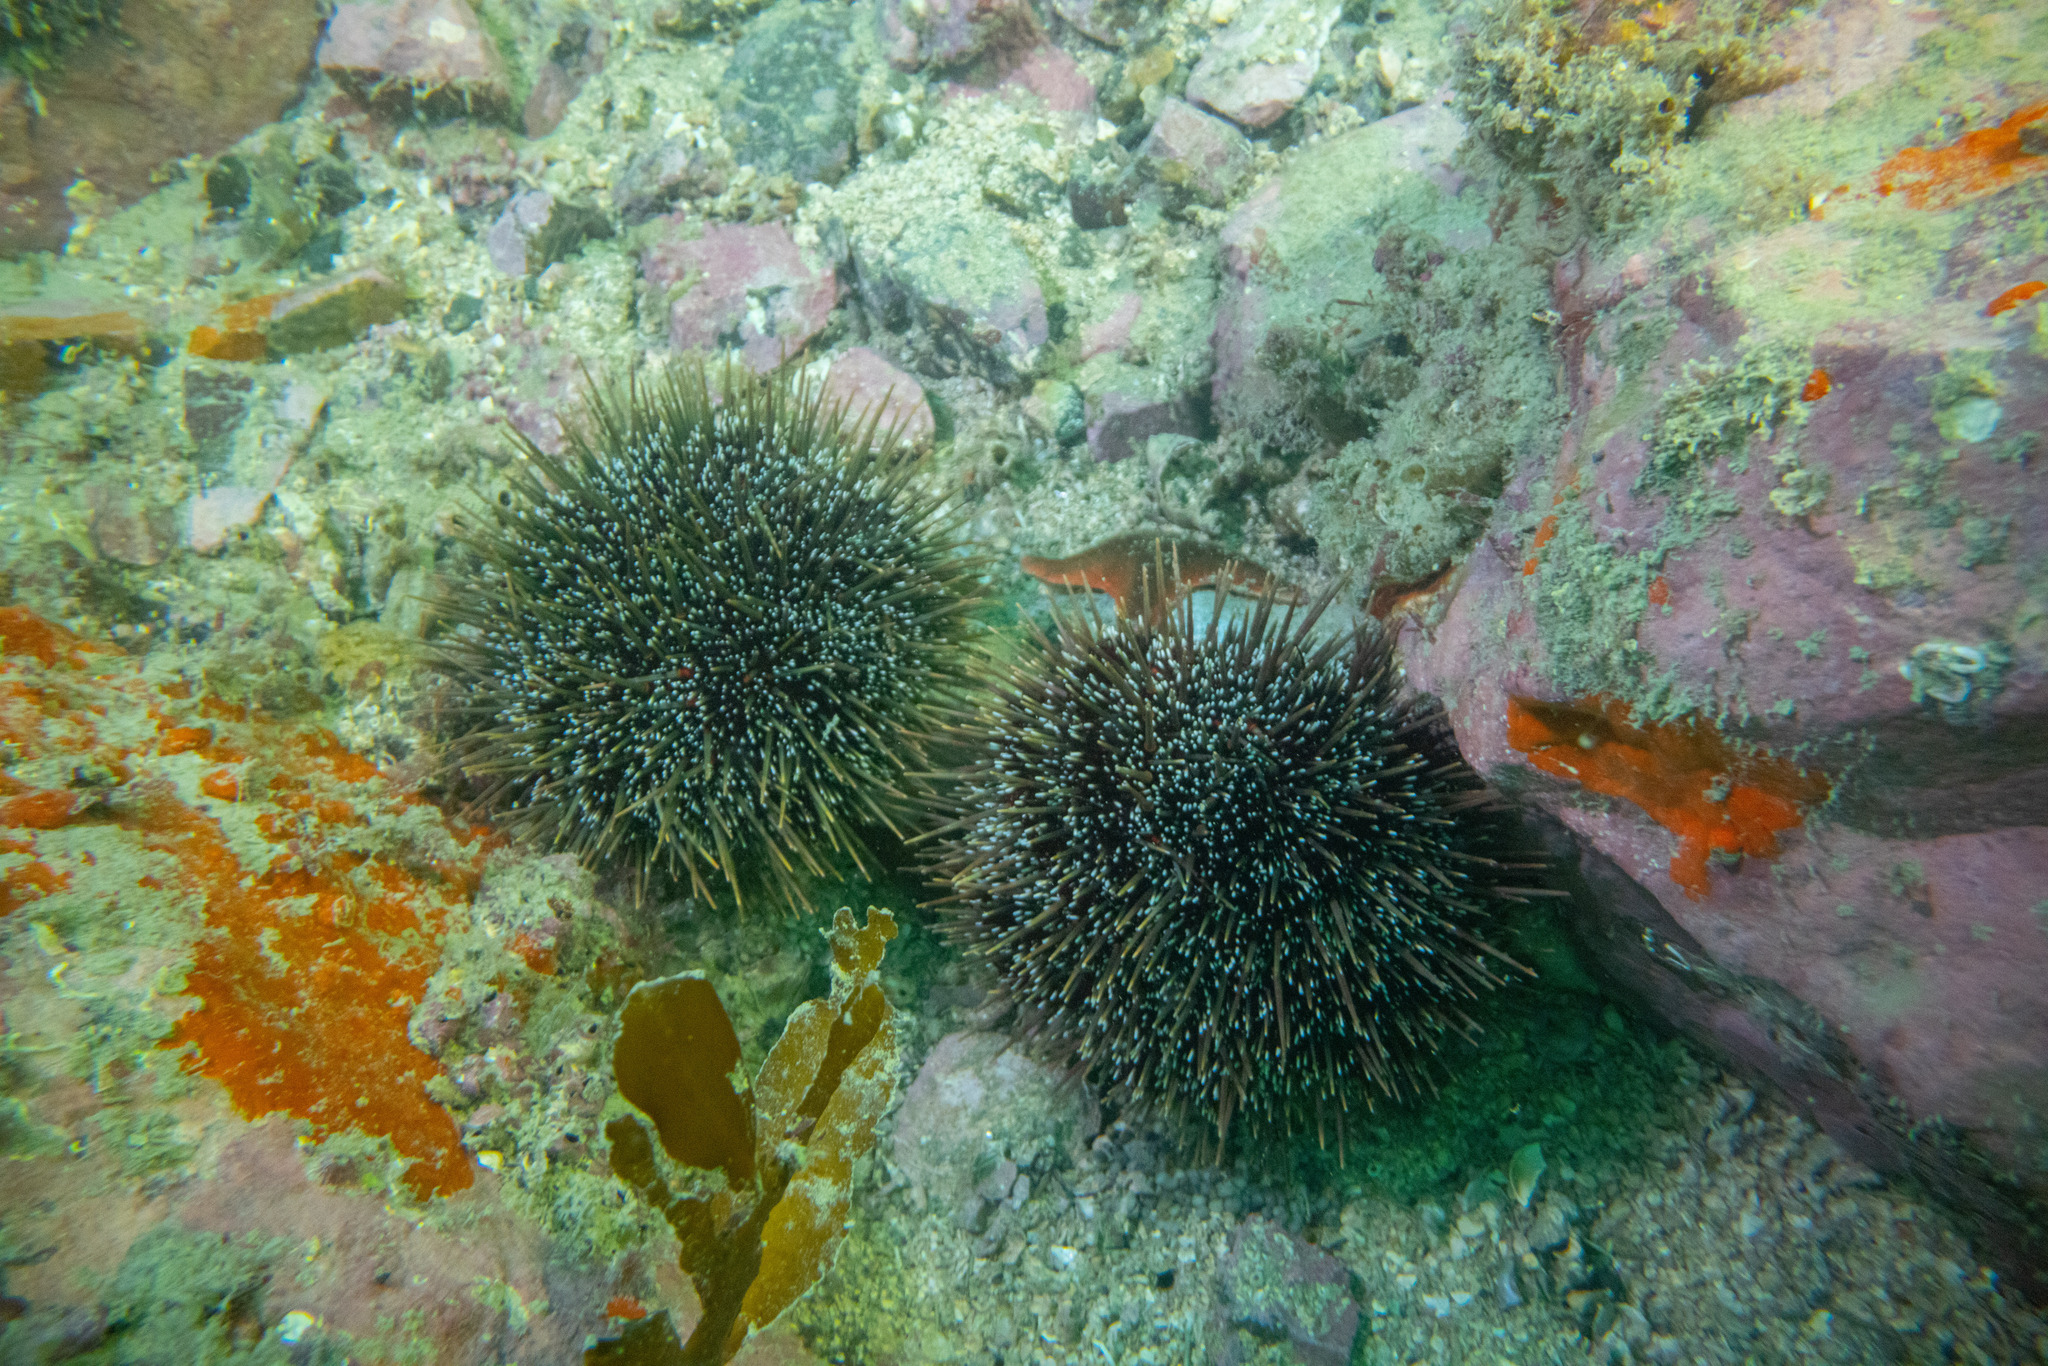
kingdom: Animalia
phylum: Echinodermata
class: Echinoidea
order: Camarodonta
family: Echinometridae
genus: Evechinus
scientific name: Evechinus chloroticus
